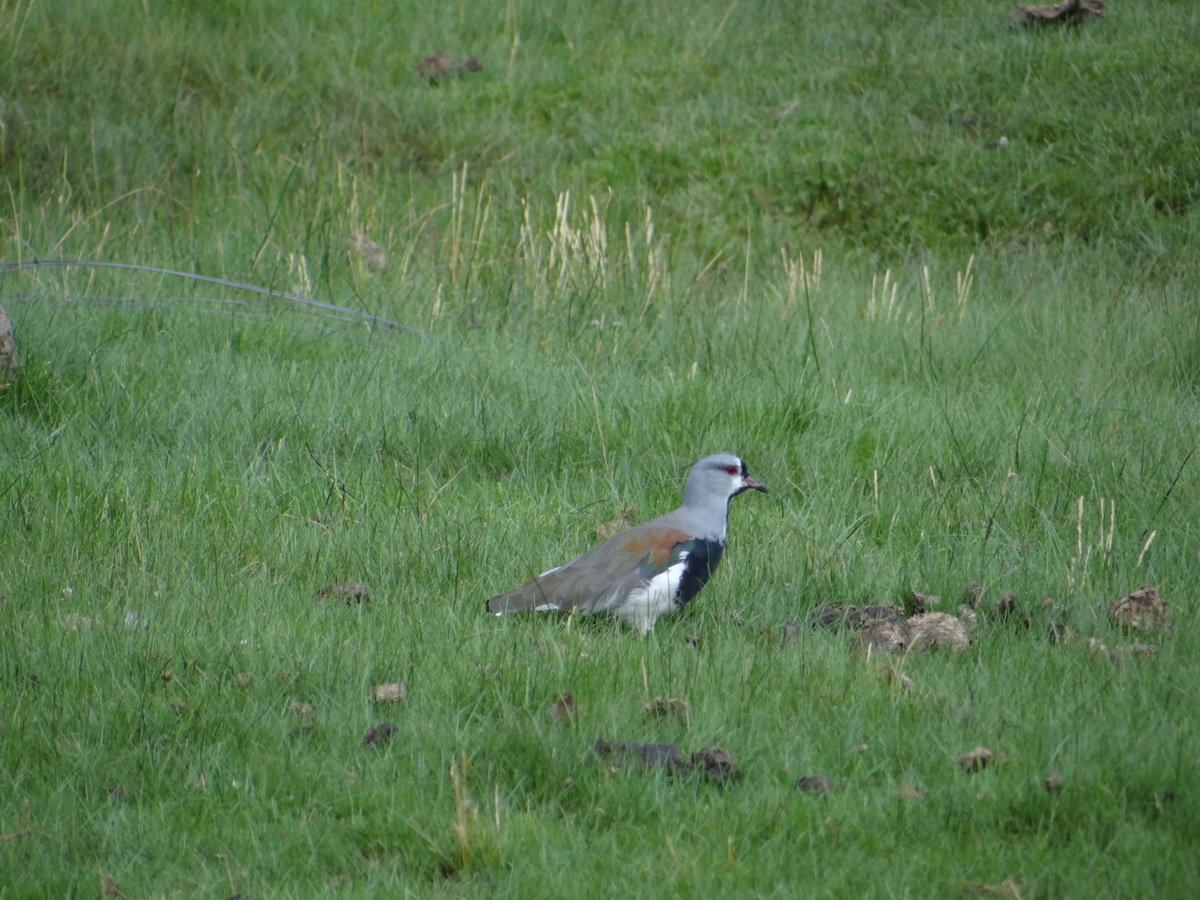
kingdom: Animalia
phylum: Chordata
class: Aves
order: Charadriiformes
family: Charadriidae
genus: Vanellus
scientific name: Vanellus chilensis
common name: Southern lapwing
